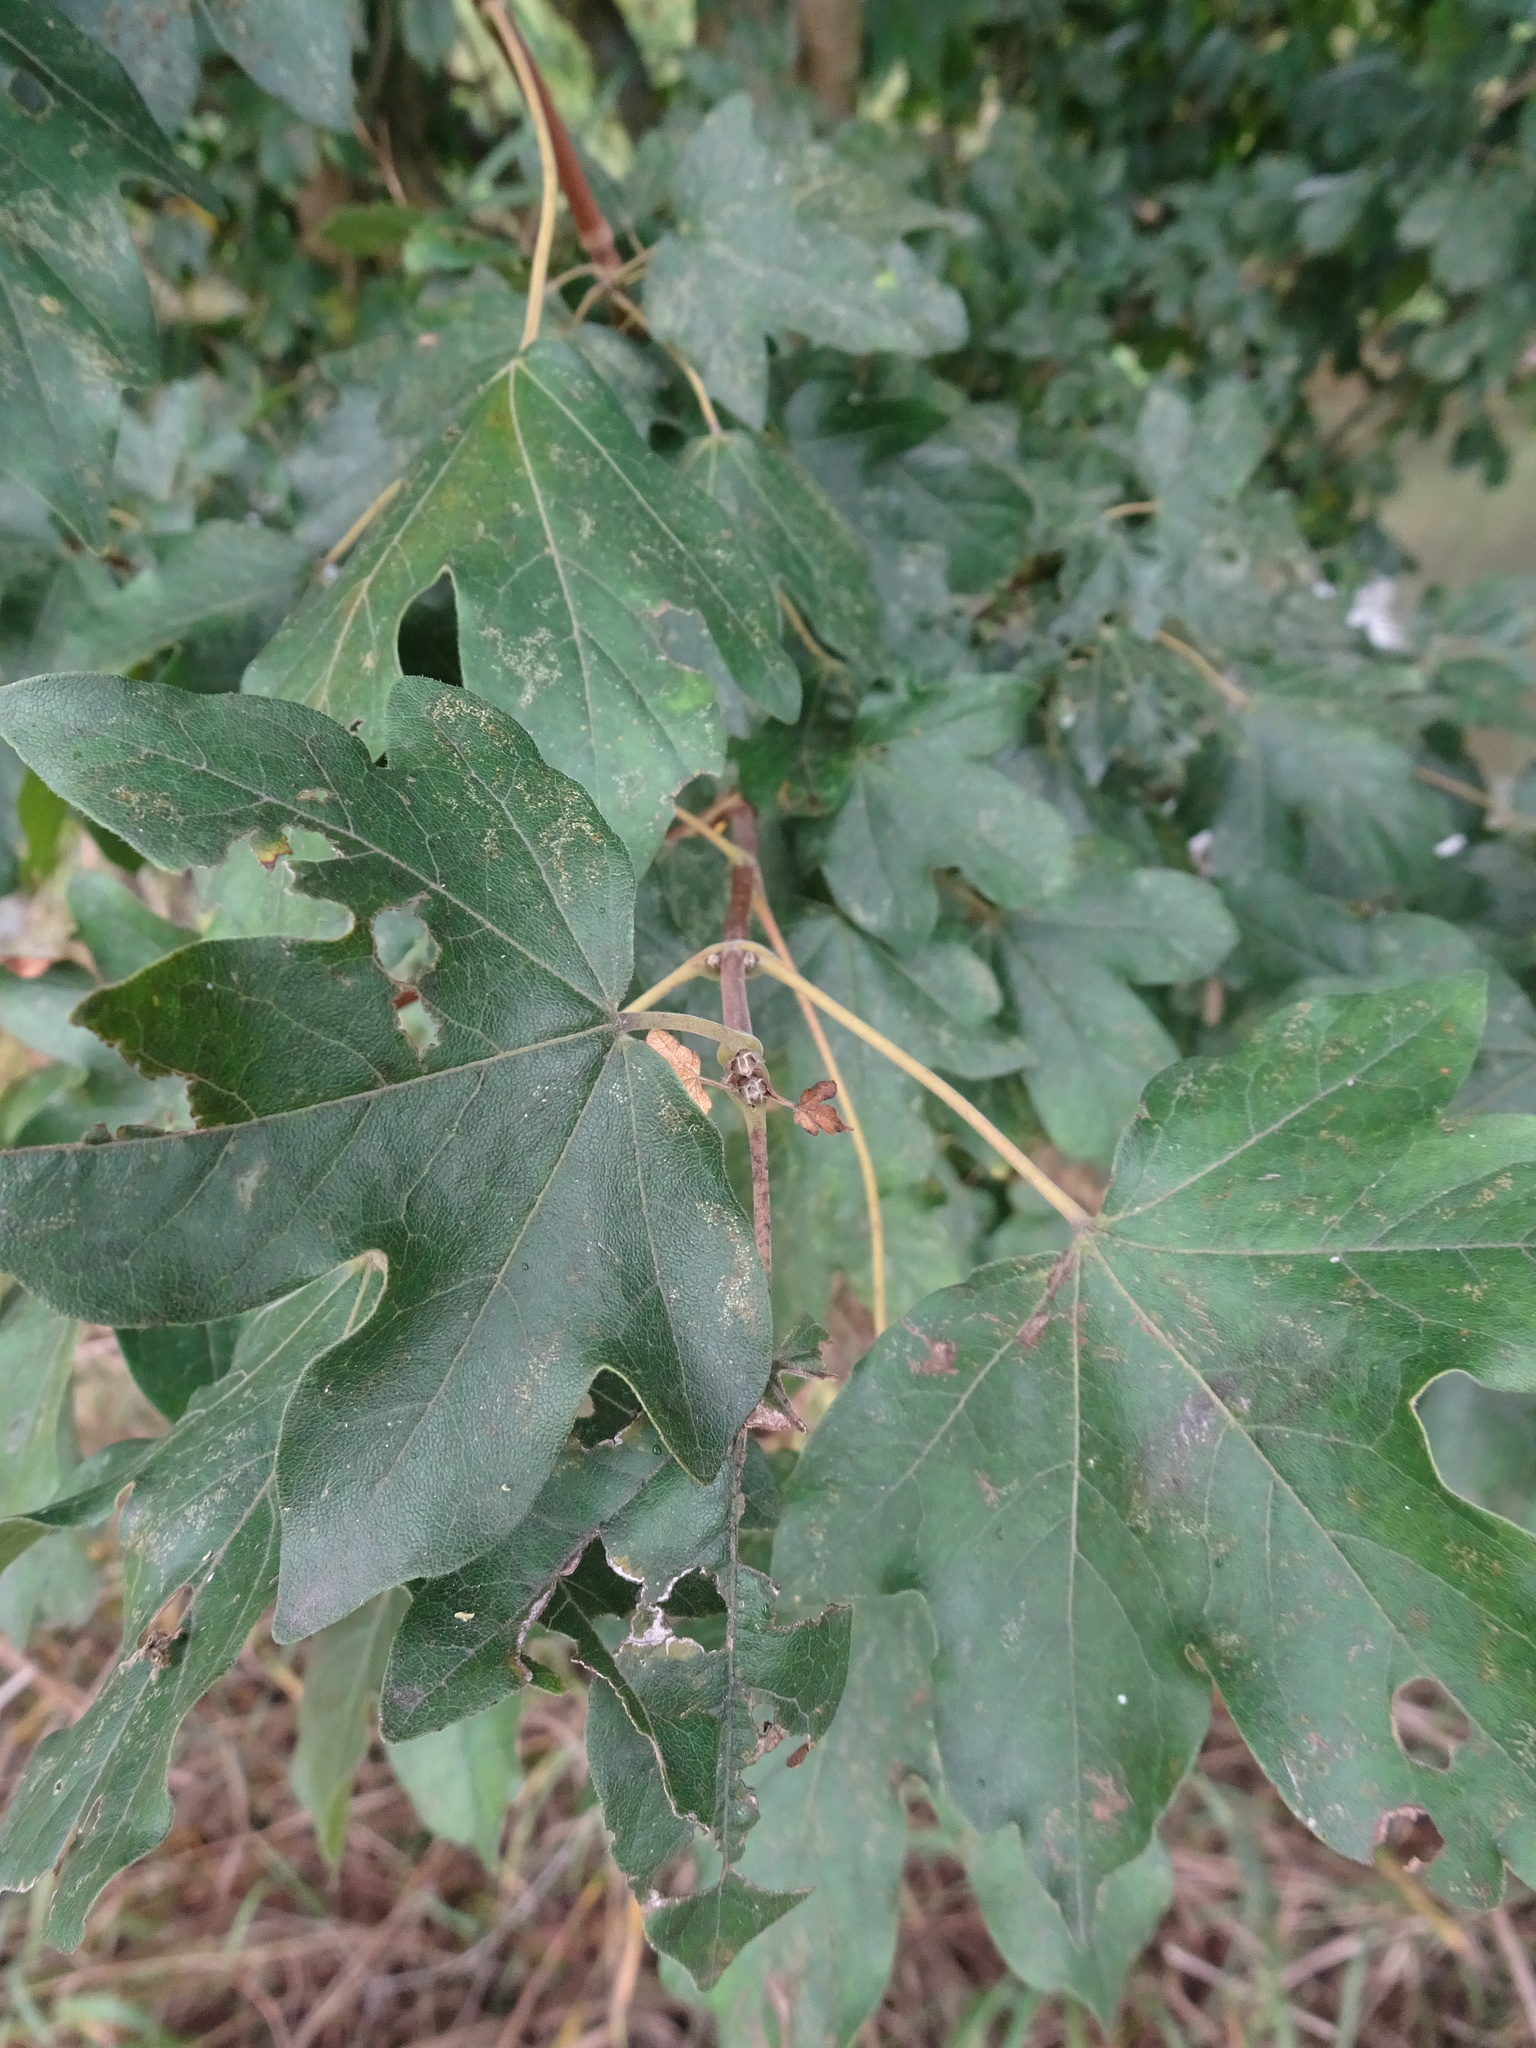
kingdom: Plantae
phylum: Tracheophyta
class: Magnoliopsida
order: Sapindales
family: Sapindaceae
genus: Acer
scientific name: Acer campestre
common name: Field maple
